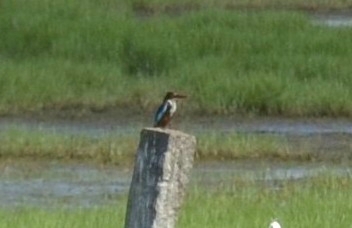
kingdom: Animalia
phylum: Chordata
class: Aves
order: Coraciiformes
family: Alcedinidae
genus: Halcyon
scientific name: Halcyon smyrnensis
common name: White-throated kingfisher
